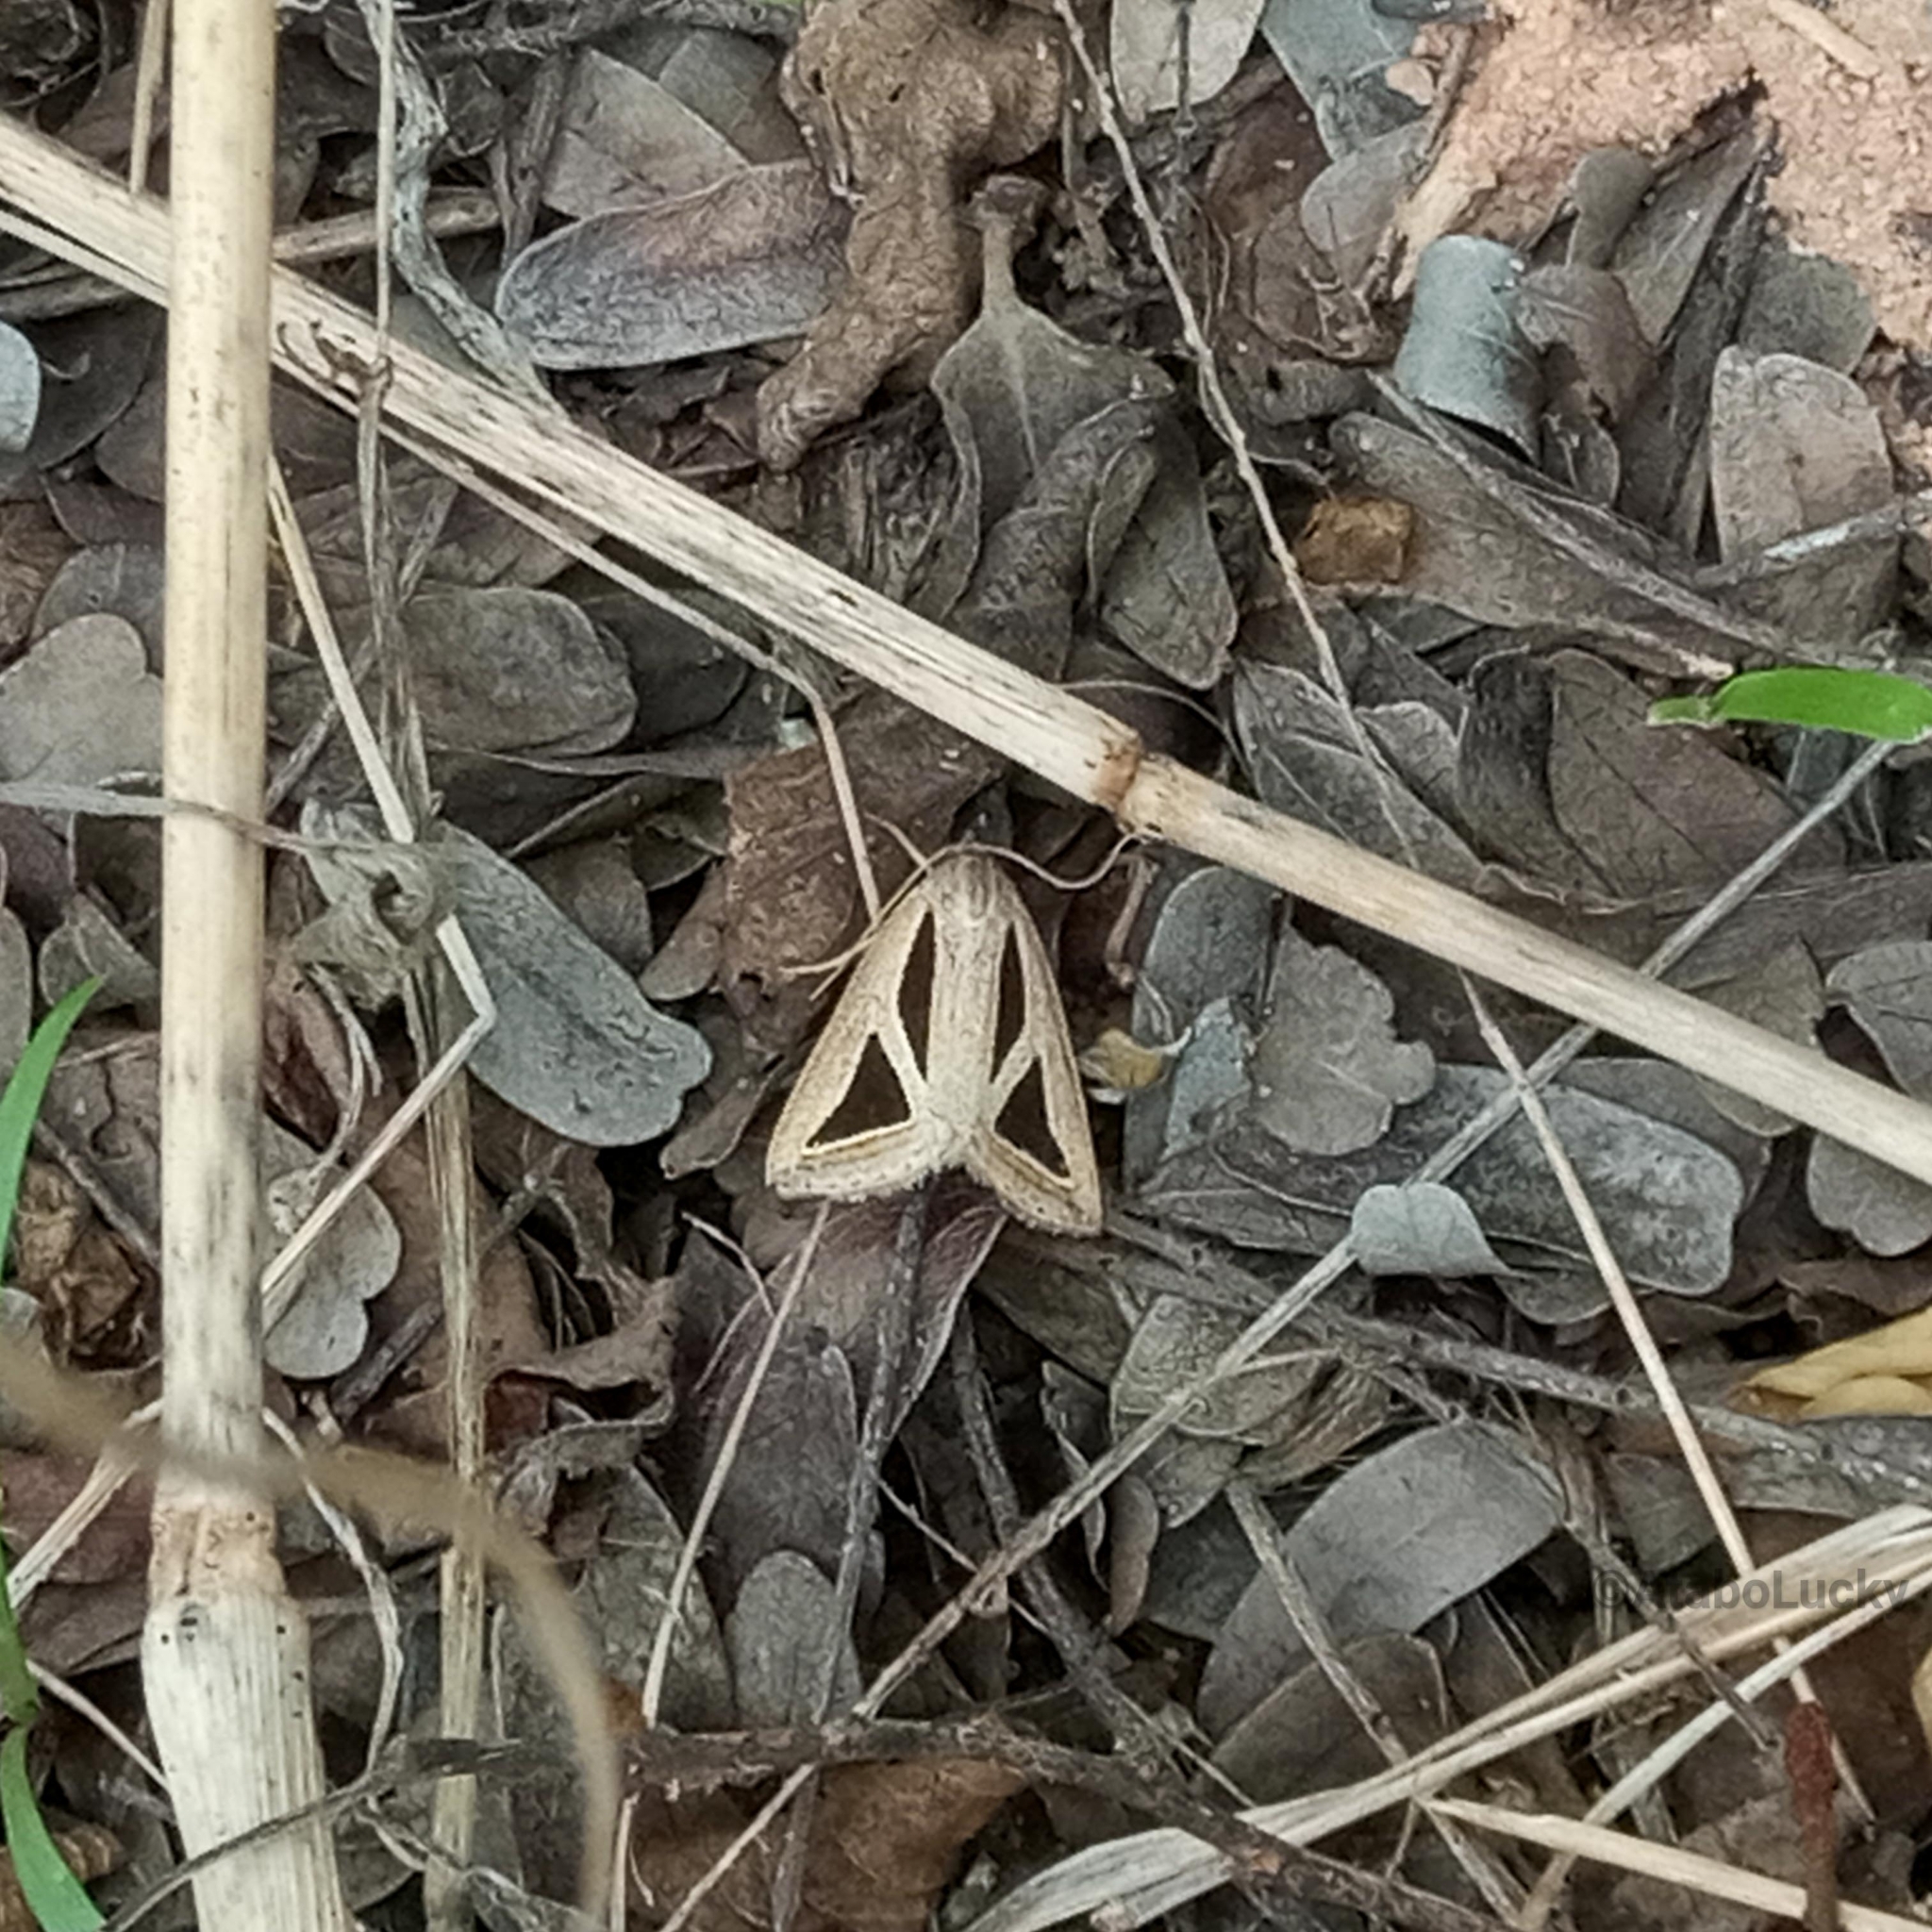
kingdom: Animalia
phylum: Arthropoda
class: Insecta
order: Lepidoptera
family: Erebidae
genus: Trigonodes
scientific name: Trigonodes pusilla
